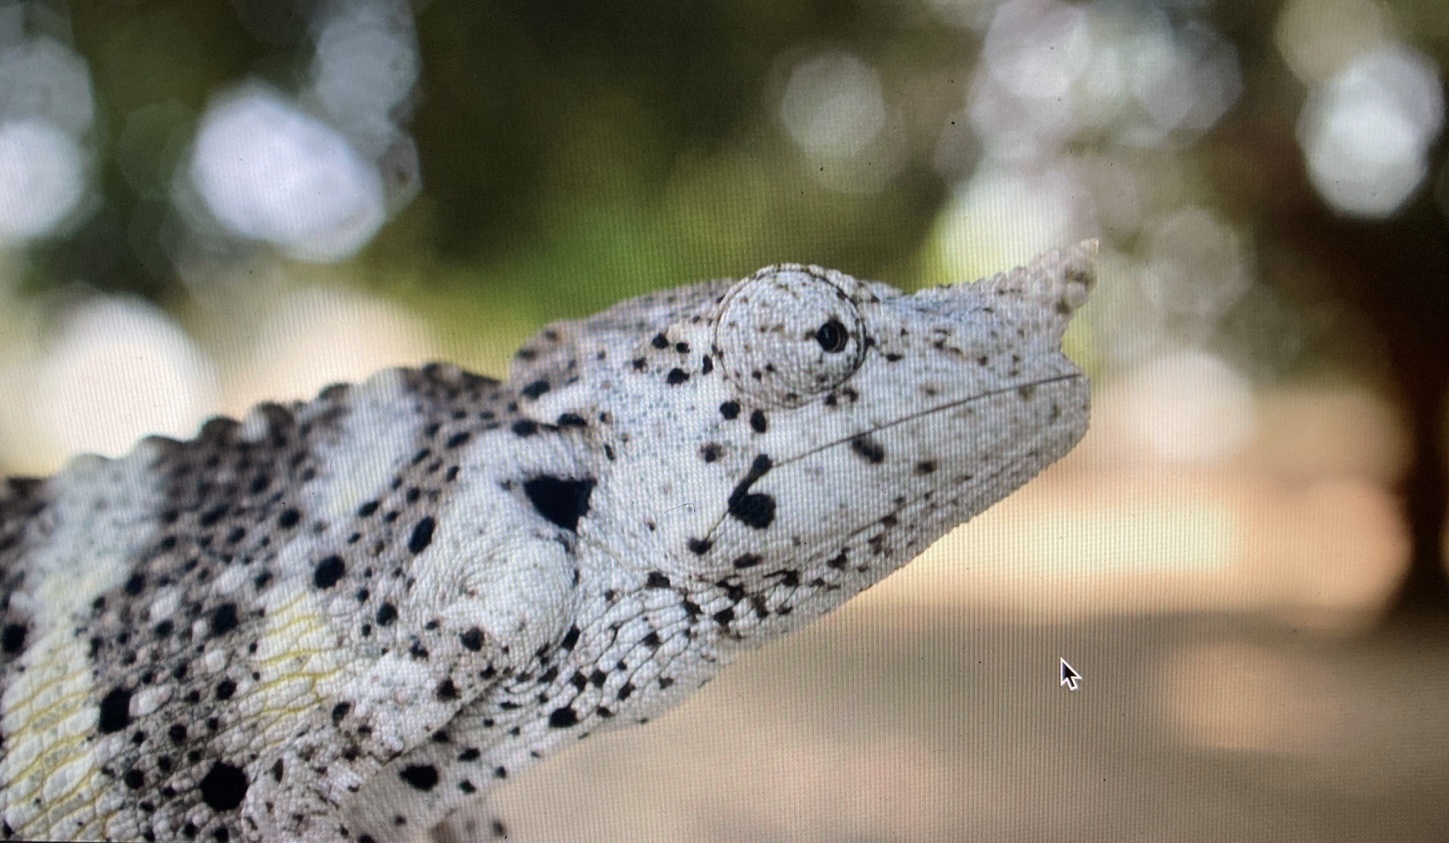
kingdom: Animalia
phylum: Chordata
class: Squamata
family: Chamaeleonidae
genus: Trioceros
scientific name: Trioceros melleri
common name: Meller's chameleon
